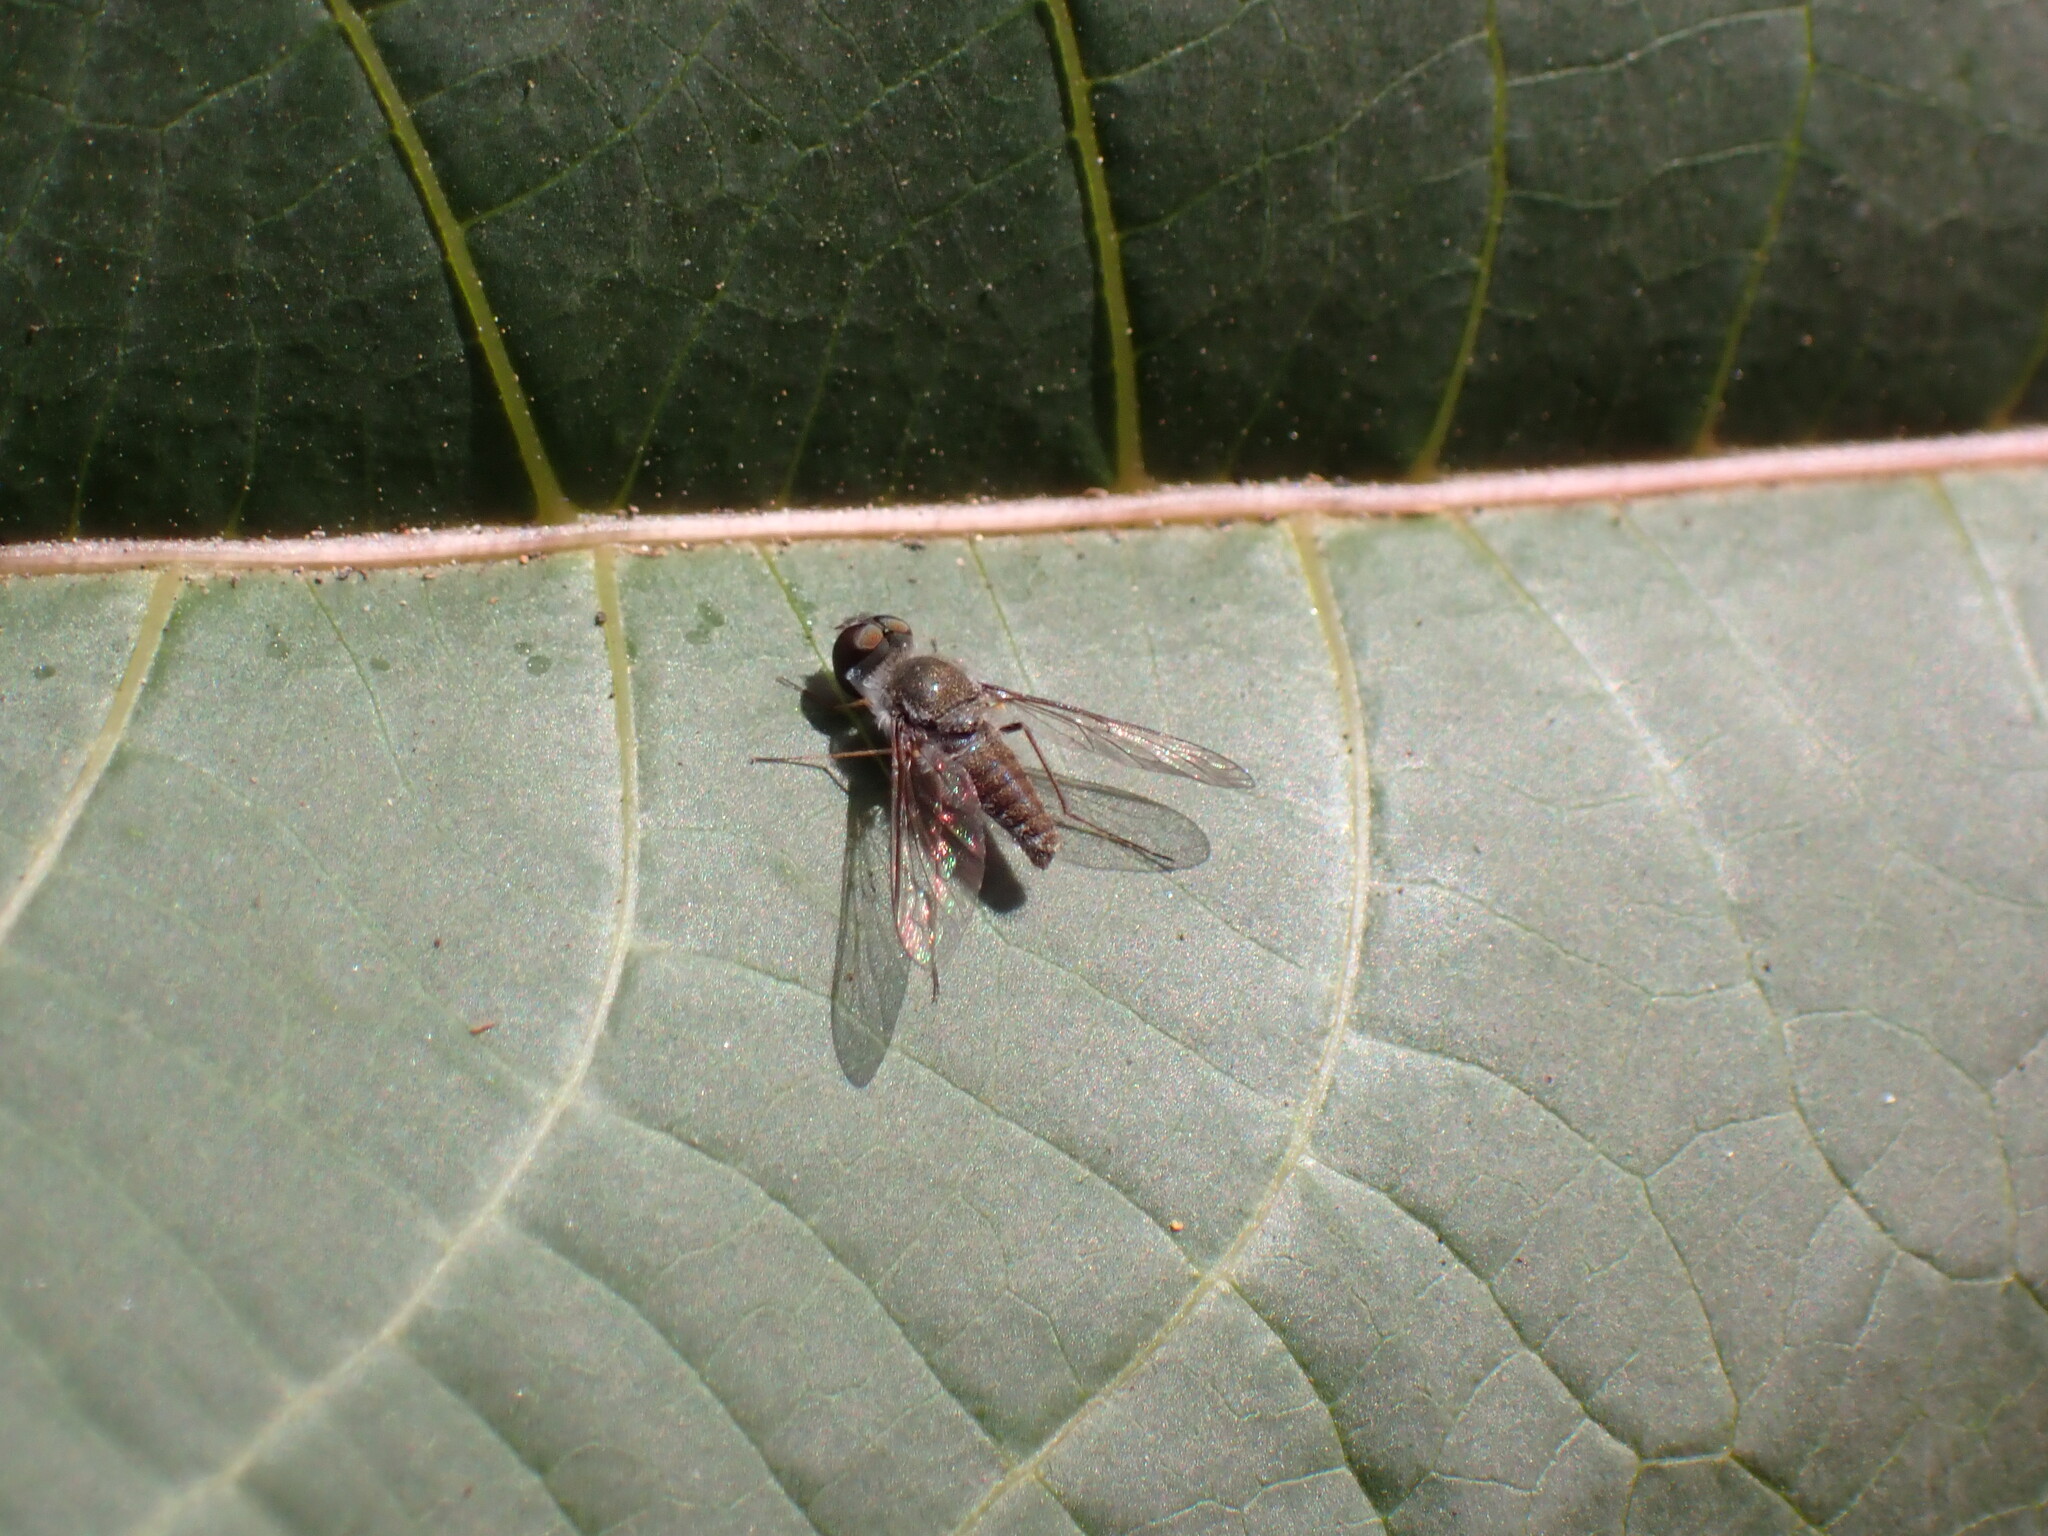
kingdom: Animalia
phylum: Arthropoda
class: Insecta
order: Diptera
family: Bombyliidae
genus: Petrorossia
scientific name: Petrorossia guanchorum
